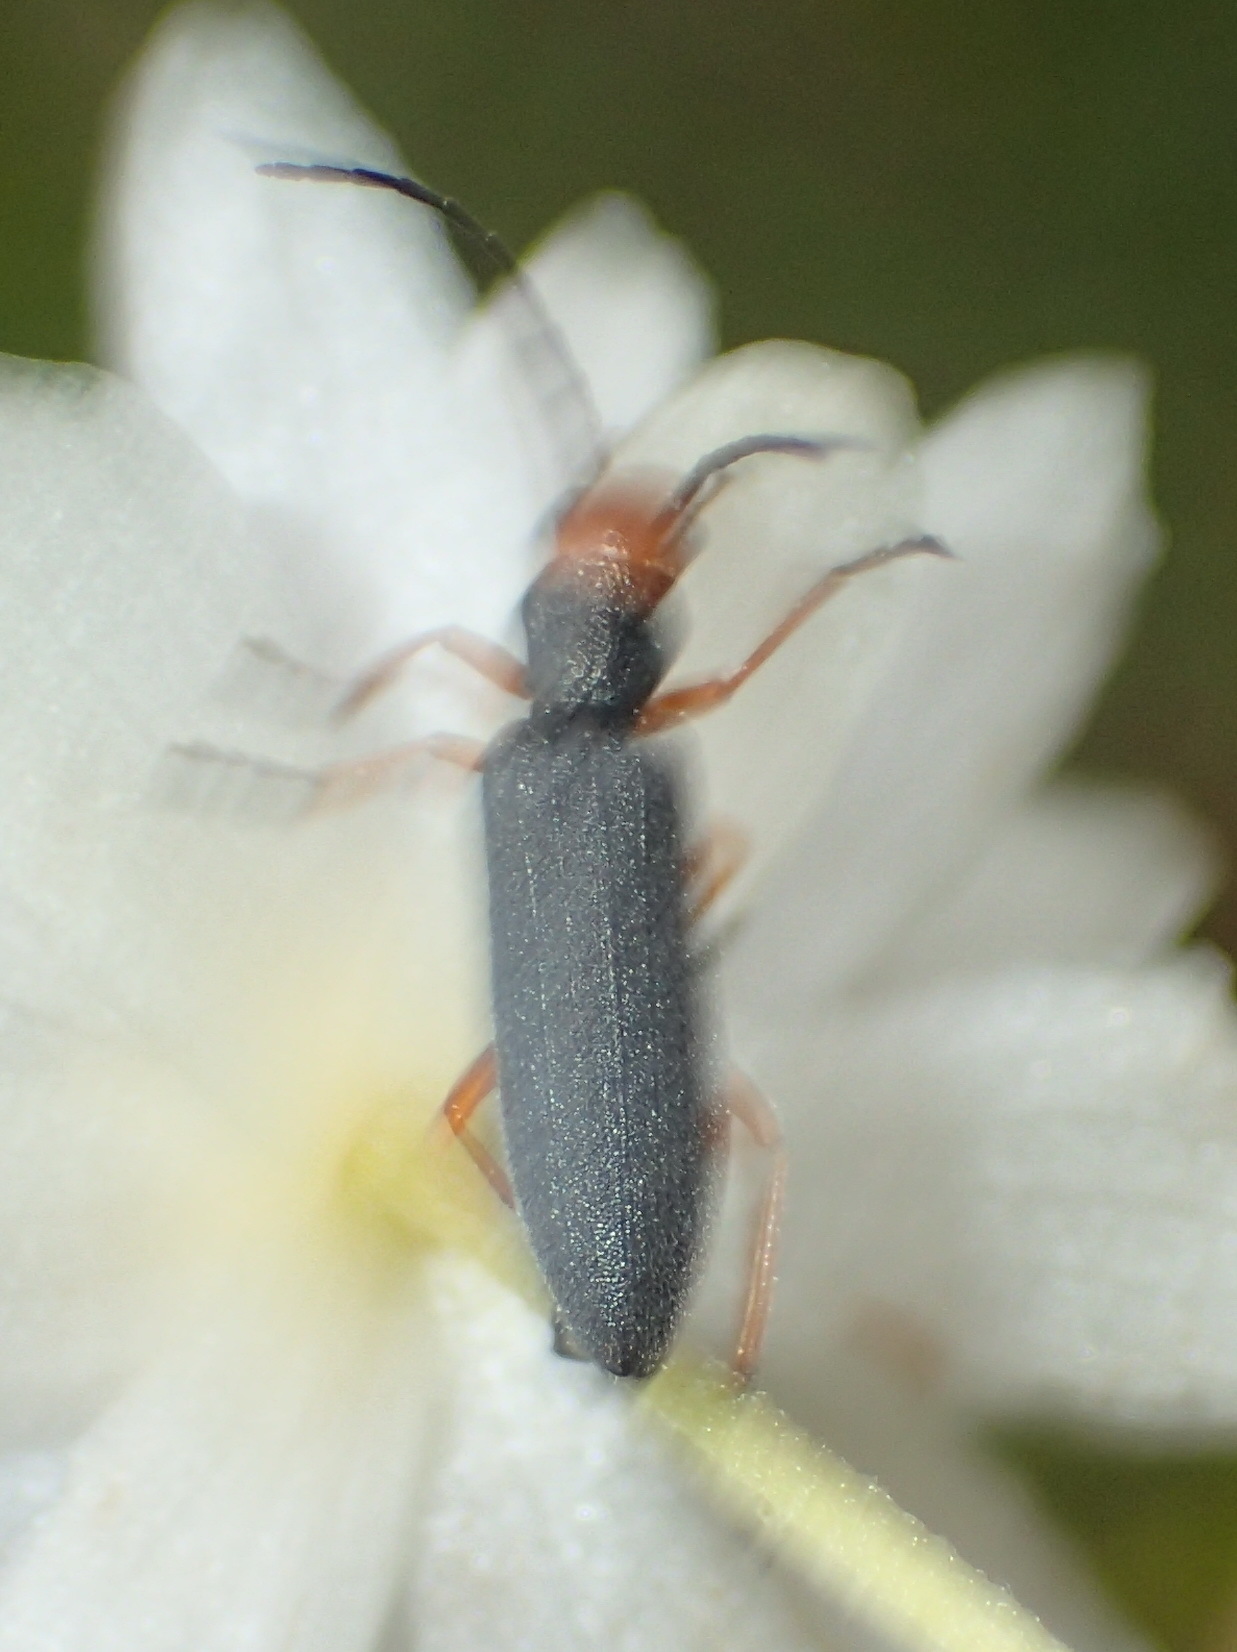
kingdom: Animalia
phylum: Arthropoda
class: Insecta
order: Coleoptera
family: Oedemeridae
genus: Melananthia
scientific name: Melananthia
